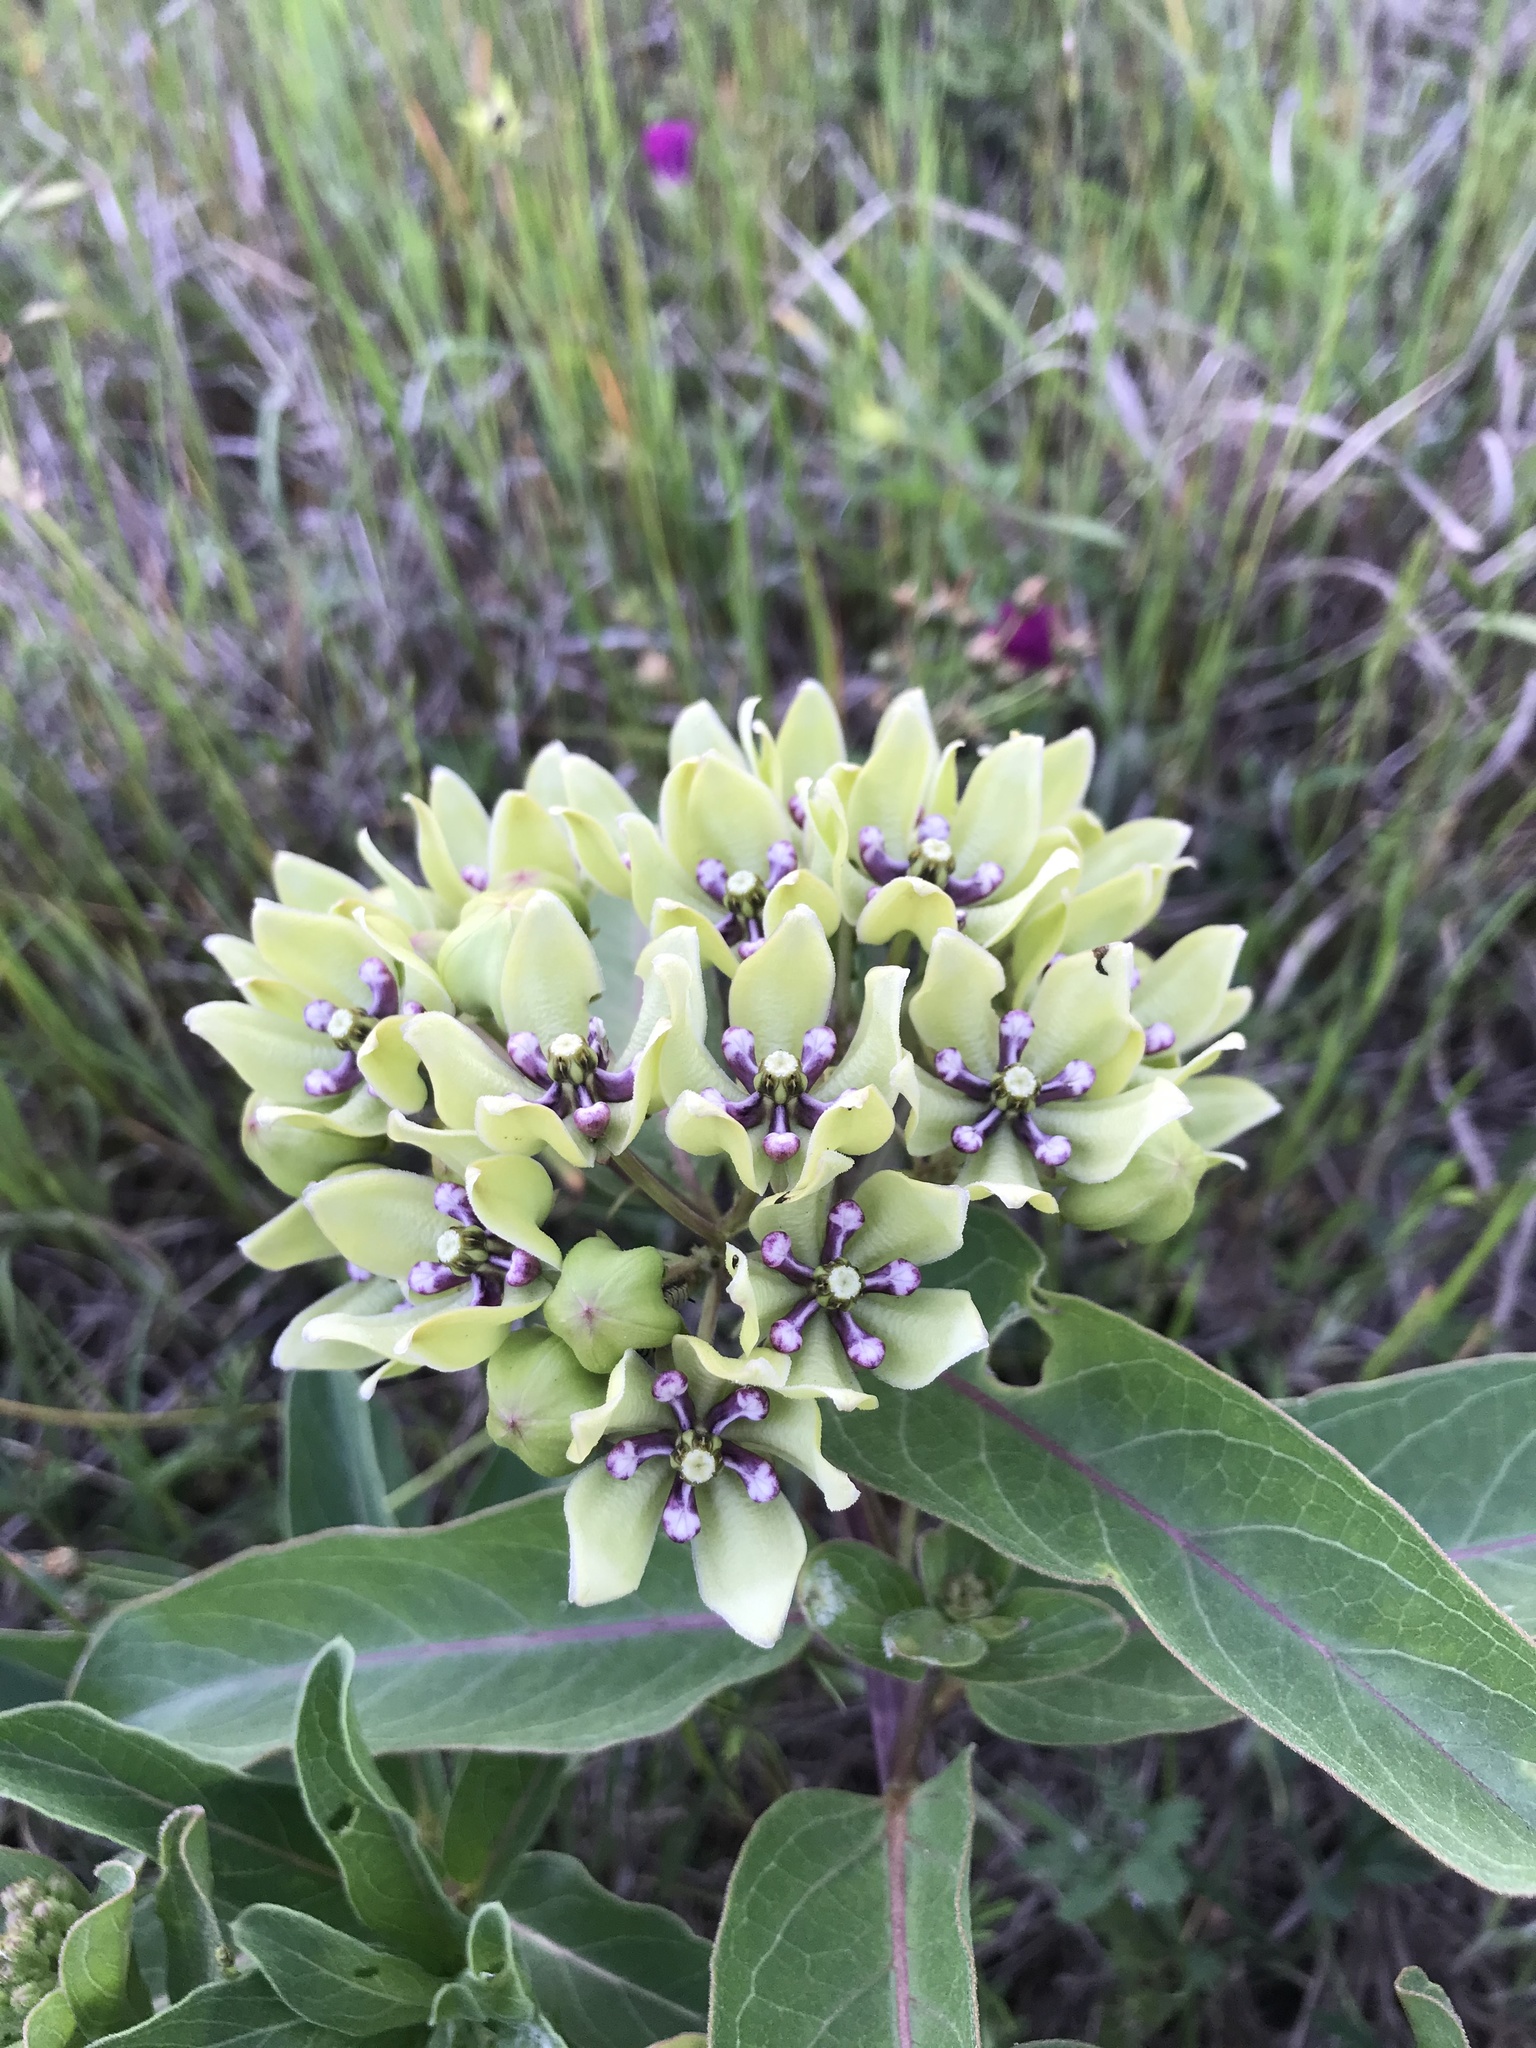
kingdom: Plantae
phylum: Tracheophyta
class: Magnoliopsida
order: Gentianales
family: Apocynaceae
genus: Asclepias
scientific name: Asclepias viridis
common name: Antelope-horns
